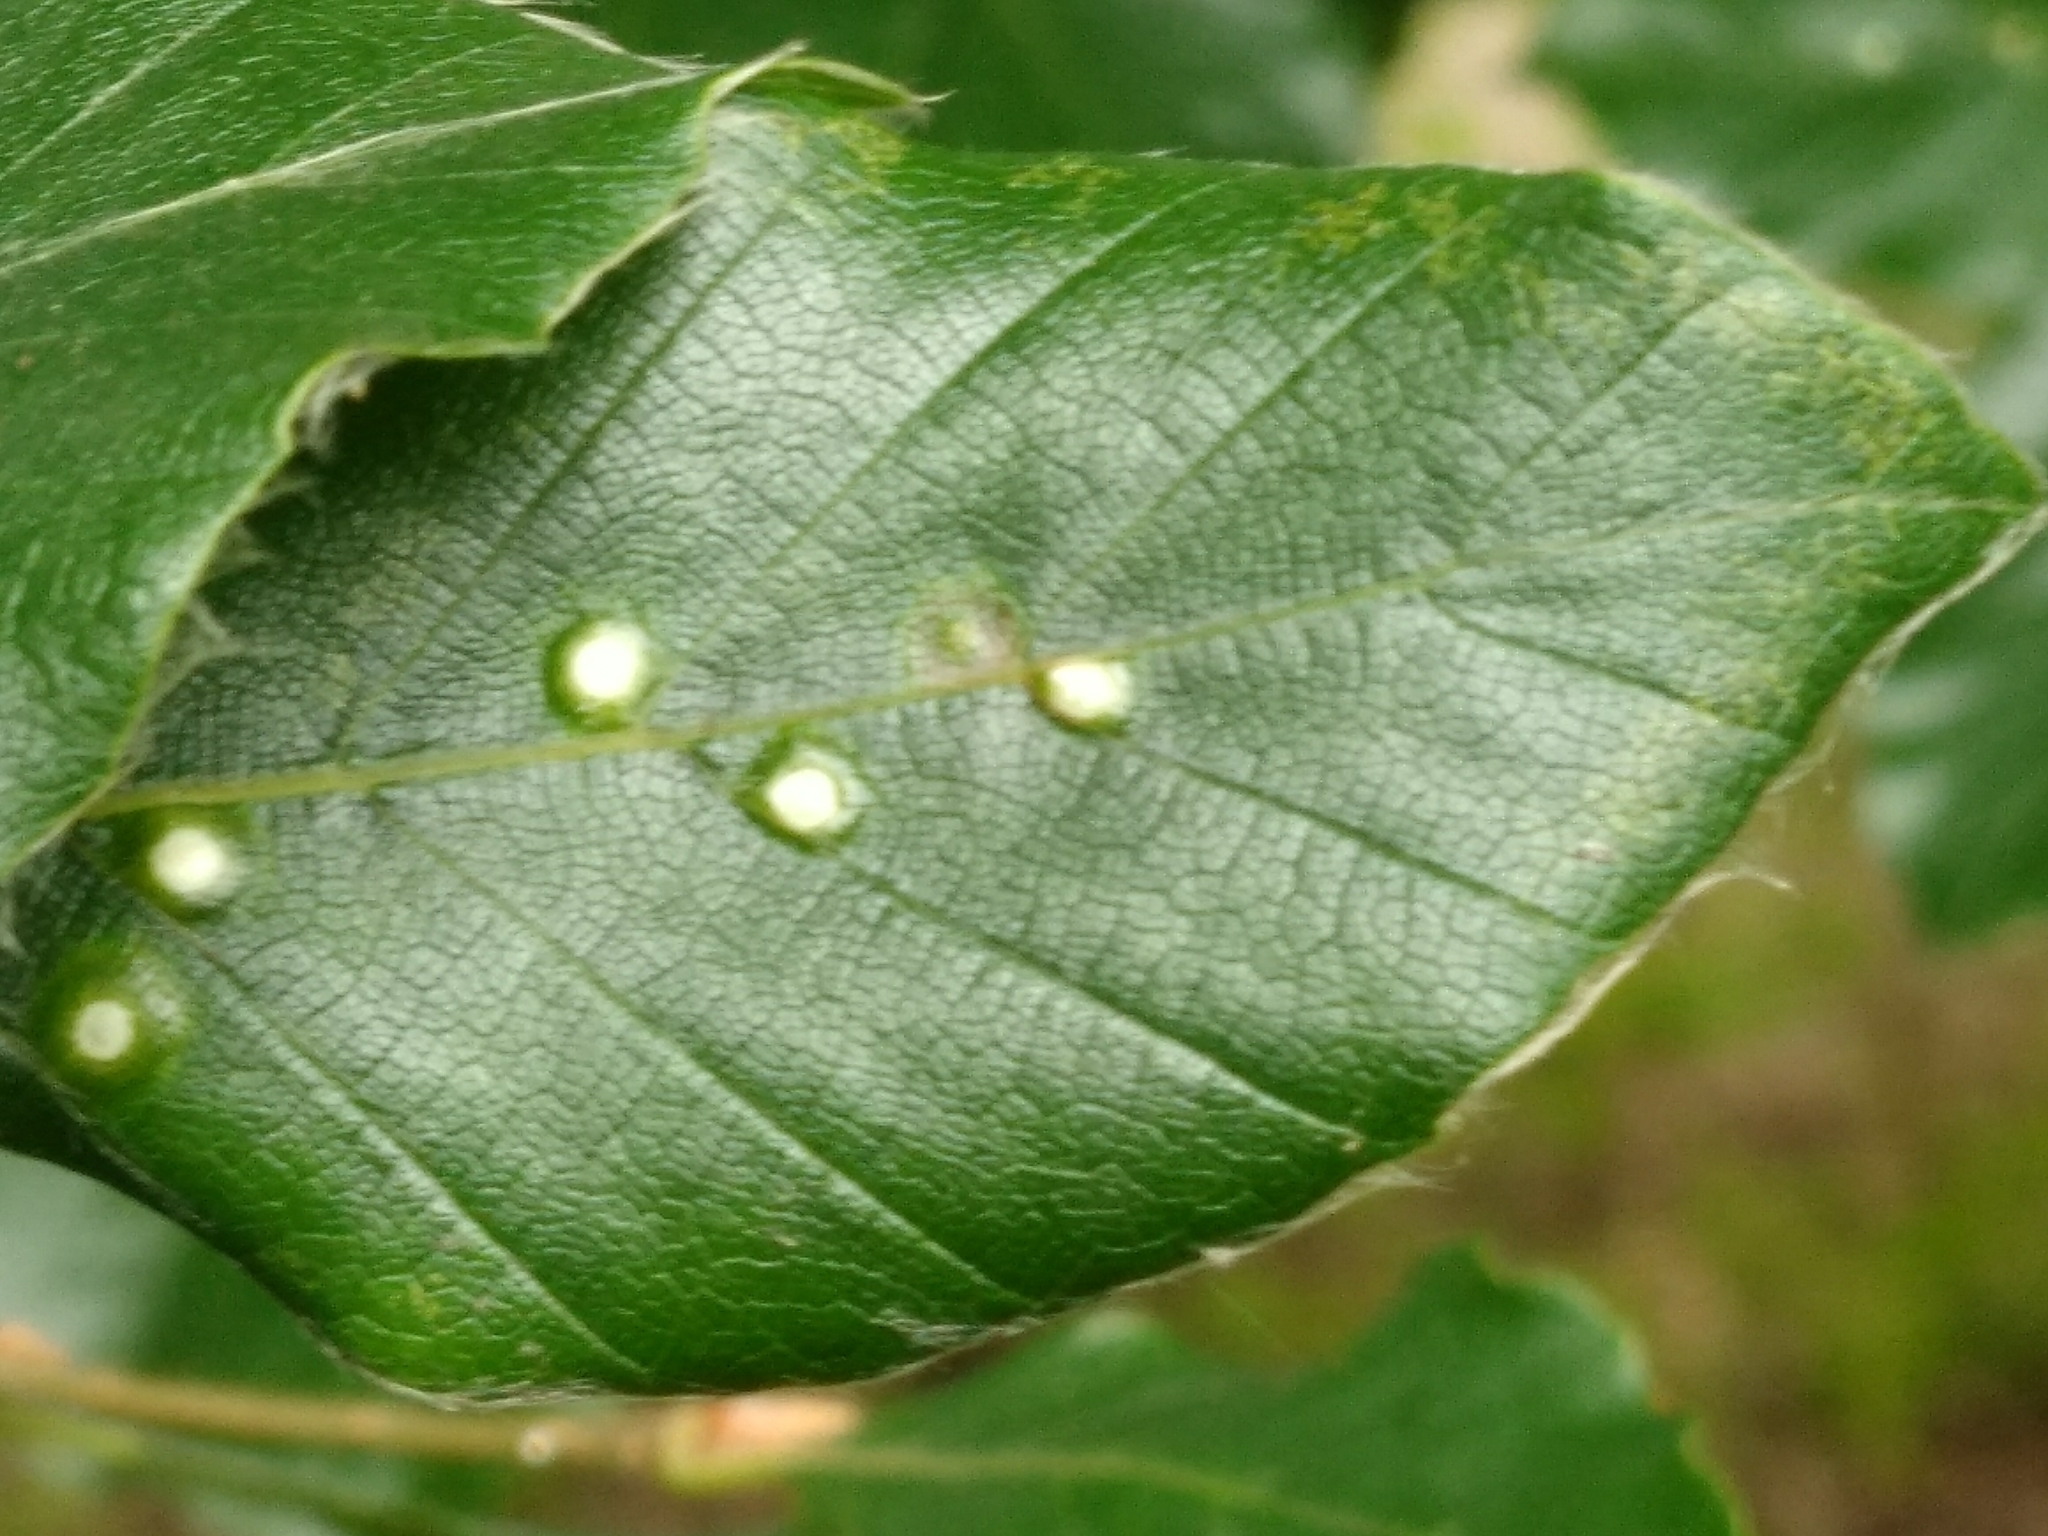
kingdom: Animalia
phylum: Arthropoda
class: Insecta
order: Diptera
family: Cecidomyiidae
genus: Hartigiola
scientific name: Hartigiola annulipes
